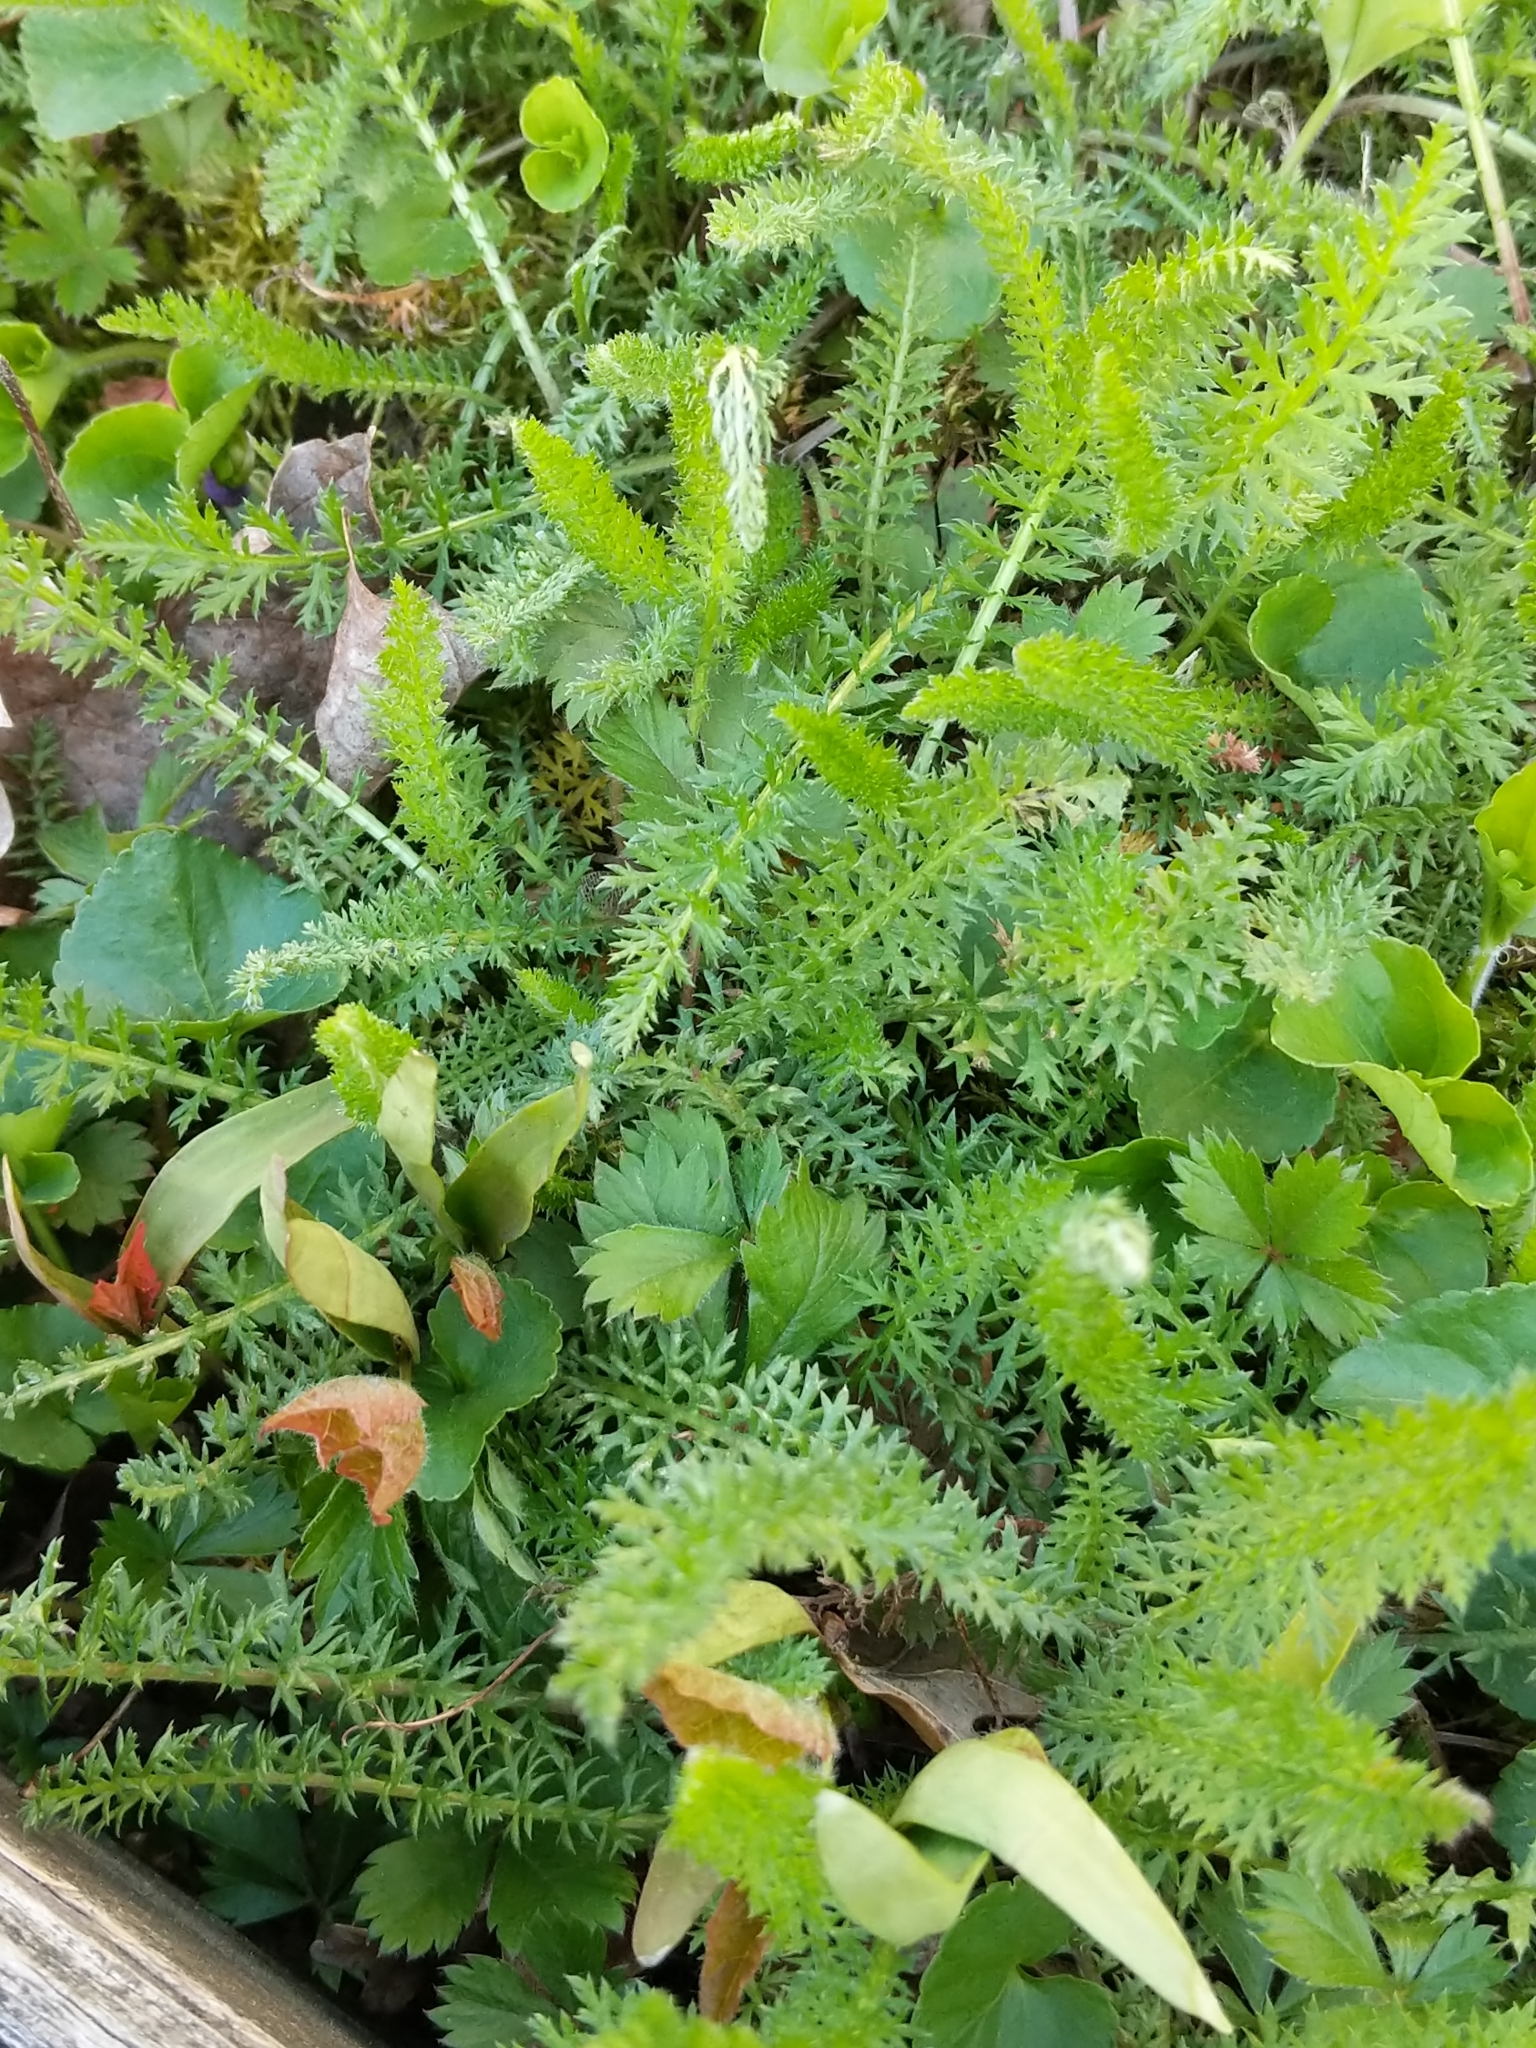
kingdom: Plantae
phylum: Tracheophyta
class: Magnoliopsida
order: Asterales
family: Asteraceae
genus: Achillea
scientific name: Achillea millefolium
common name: Yarrow
